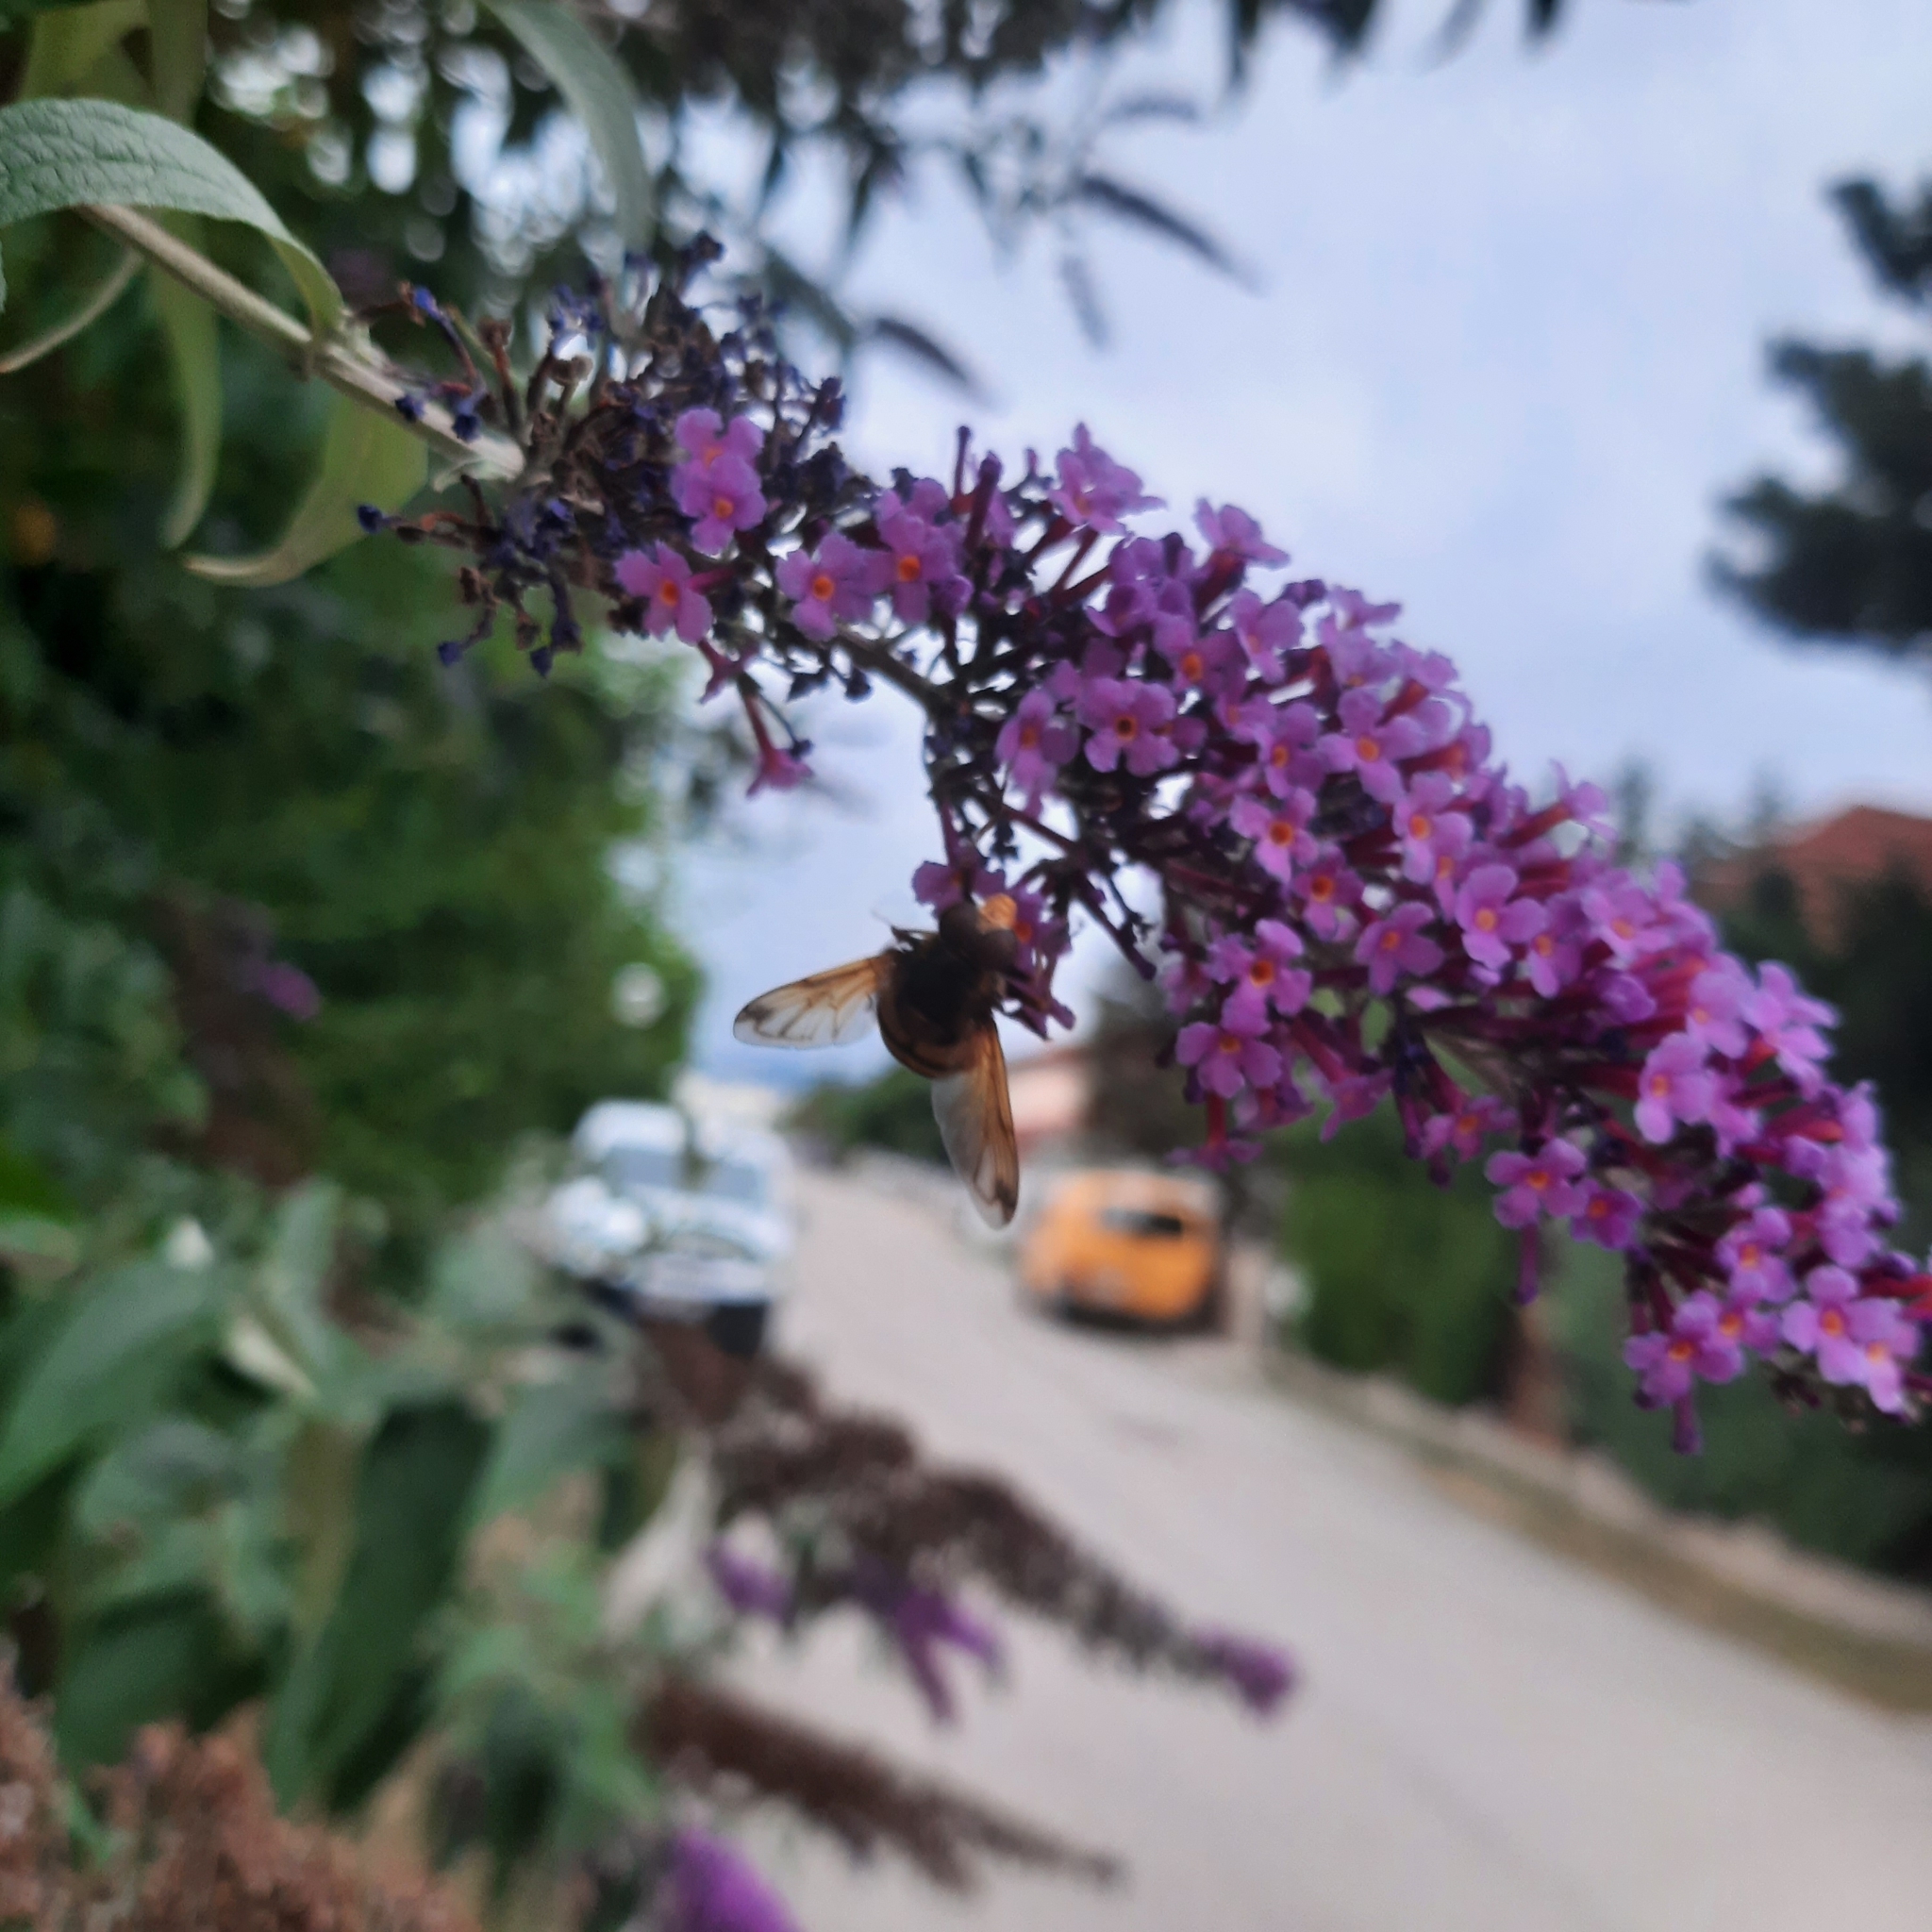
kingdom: Animalia
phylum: Arthropoda
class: Insecta
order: Diptera
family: Syrphidae
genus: Volucella
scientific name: Volucella inanis
